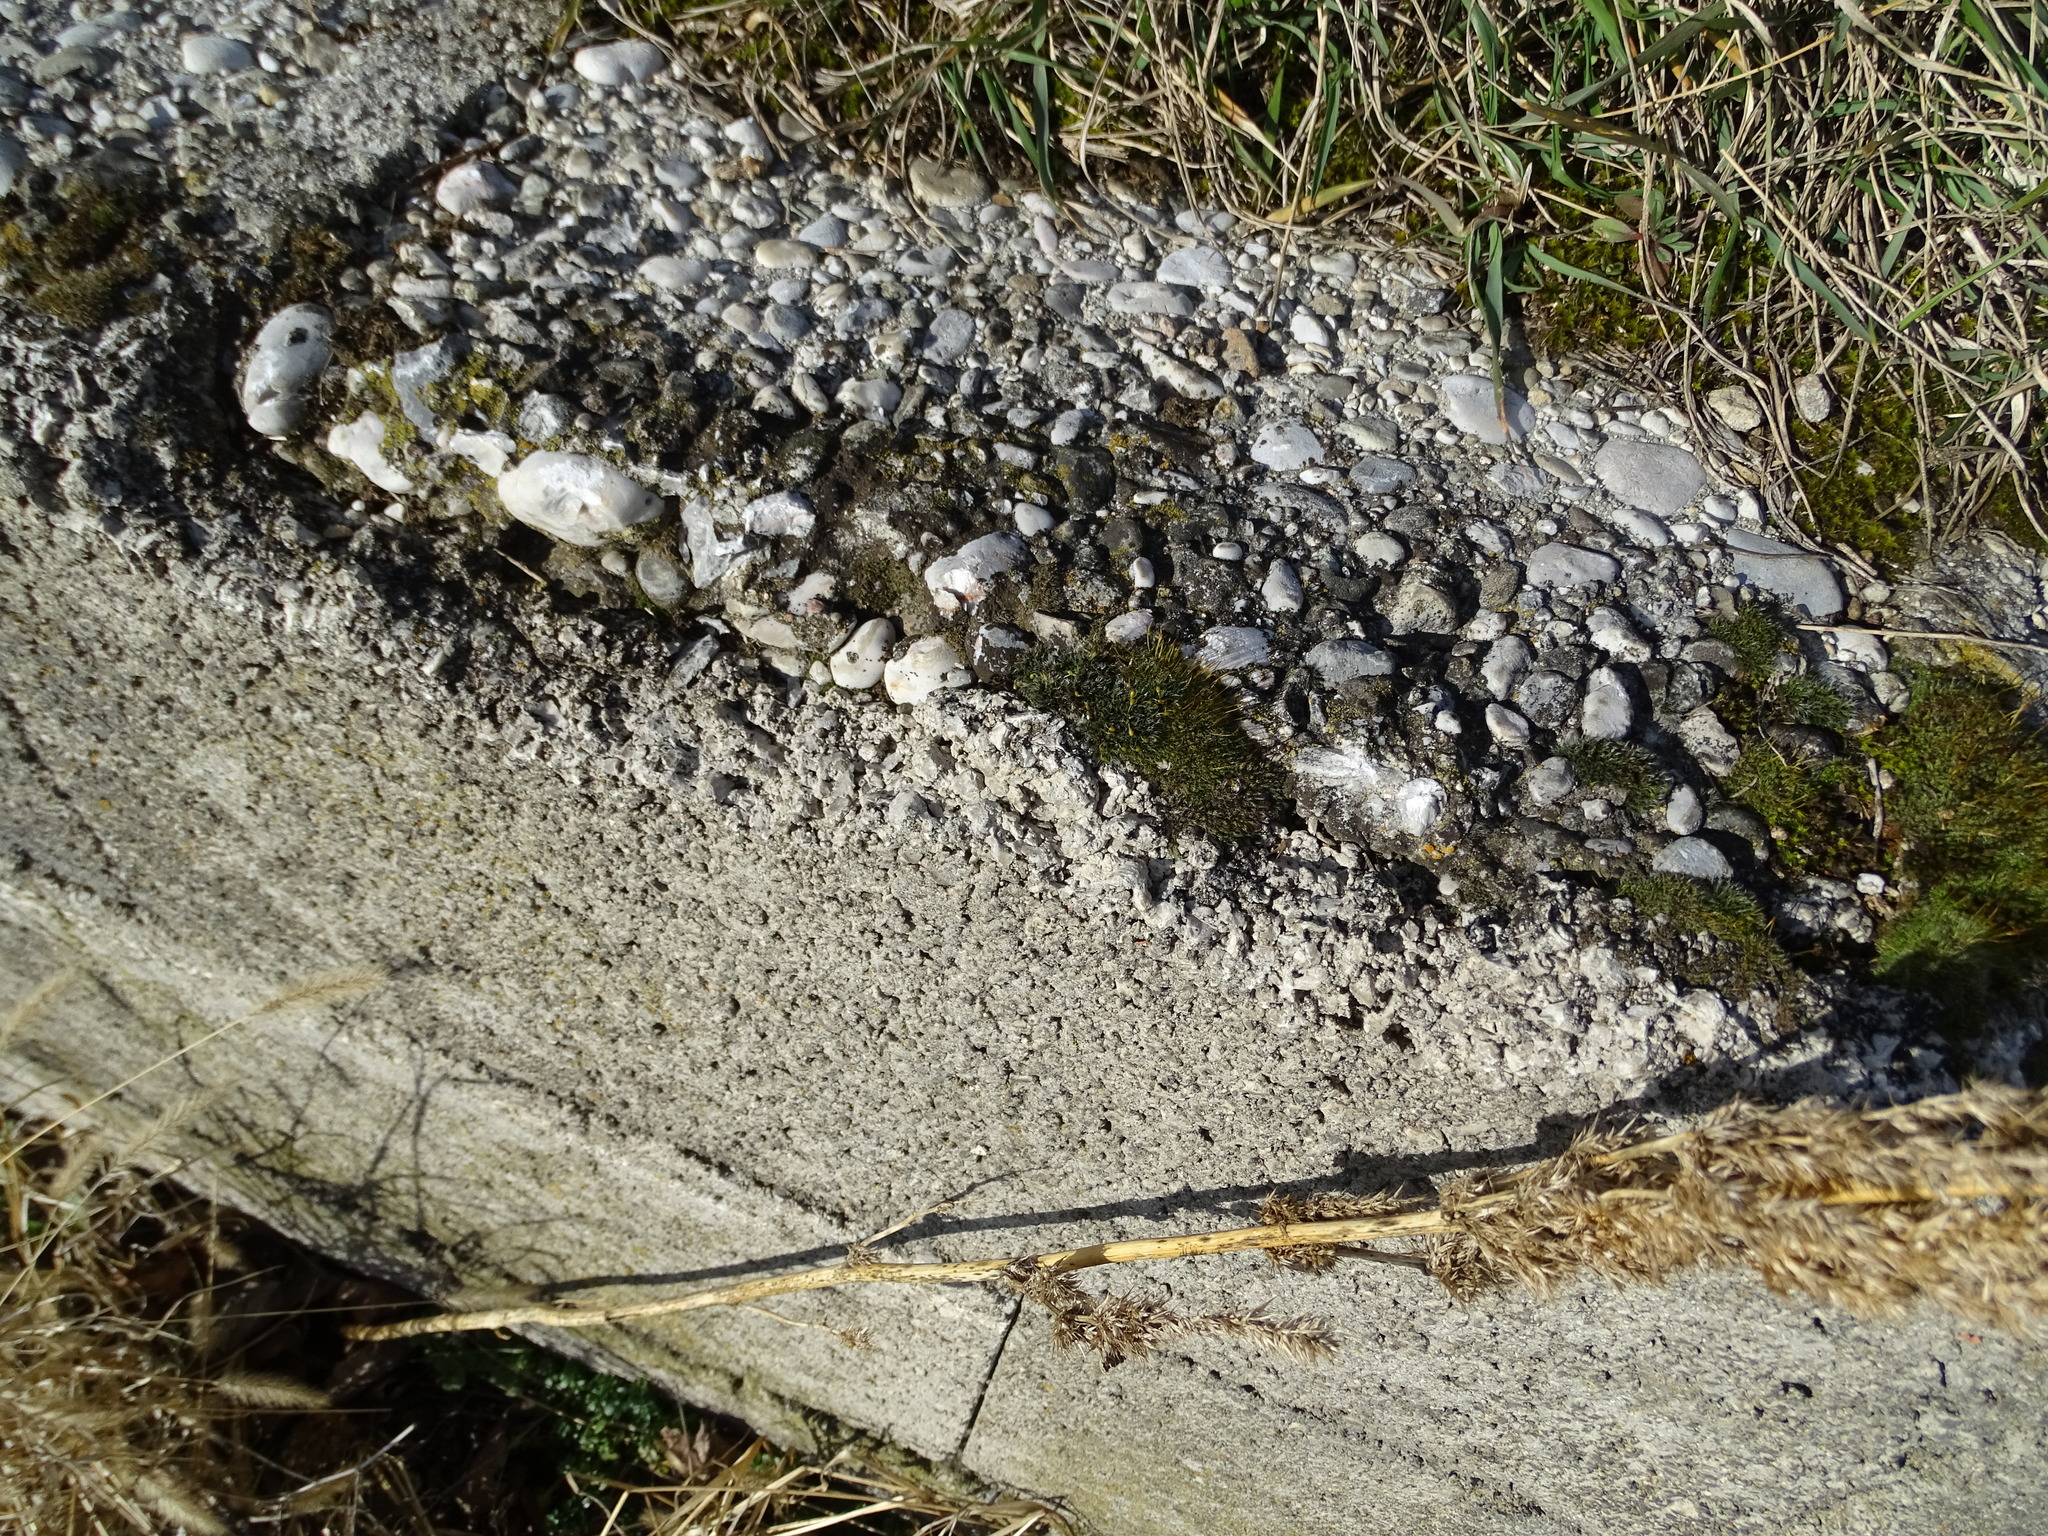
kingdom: Plantae
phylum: Bryophyta
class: Bryopsida
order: Pottiales
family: Pottiaceae
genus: Tortula
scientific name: Tortula muralis
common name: Wall screw-moss
